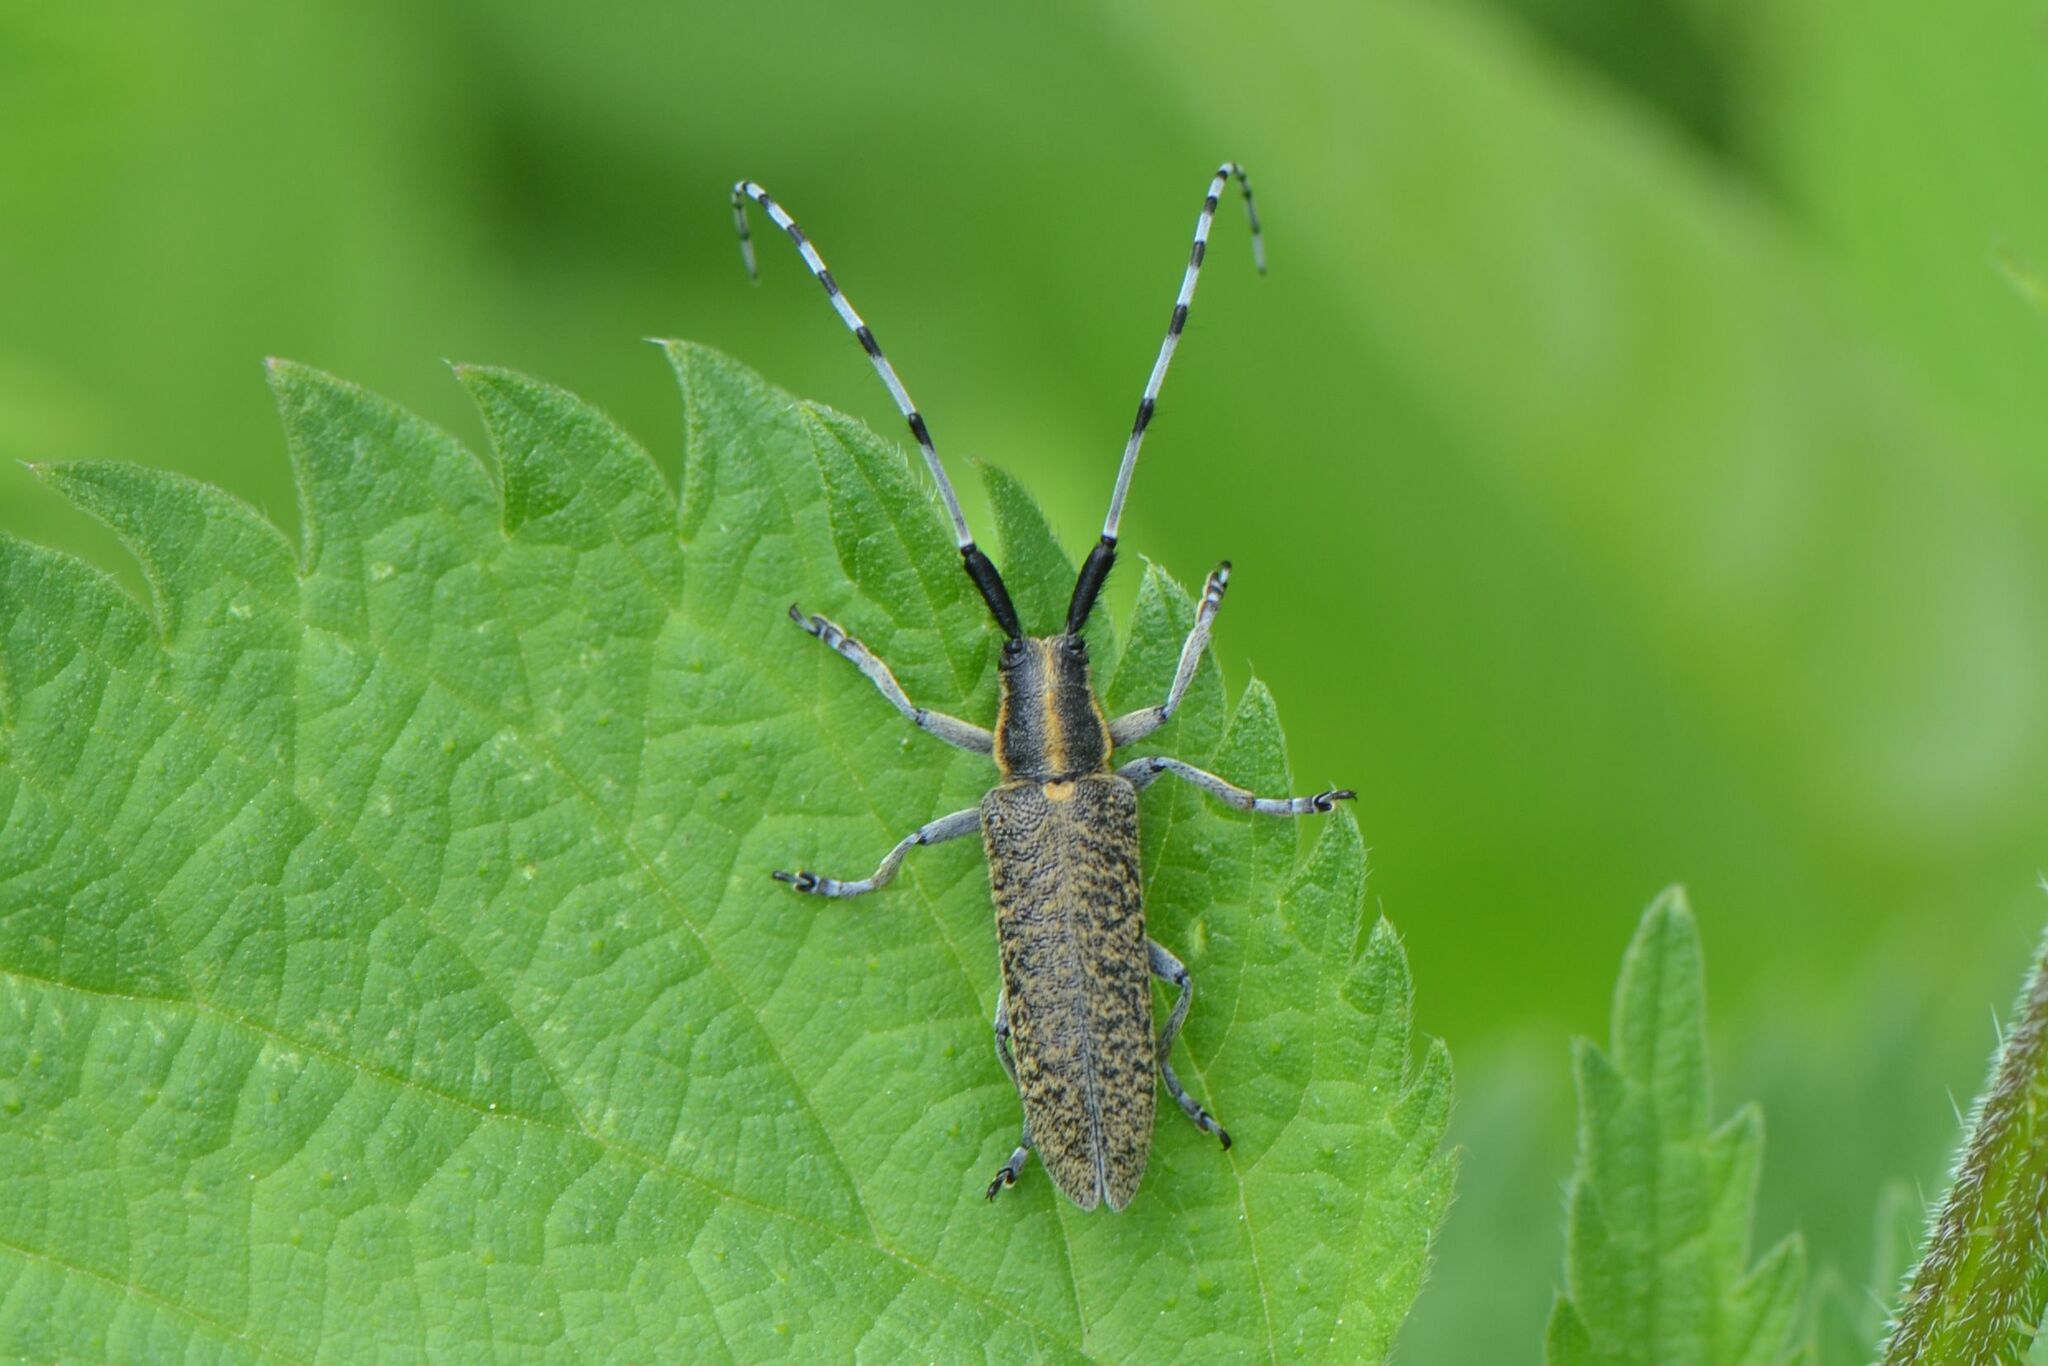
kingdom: Animalia
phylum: Arthropoda
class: Insecta
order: Coleoptera
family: Cerambycidae
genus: Agapanthia
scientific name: Agapanthia villosoviridescens
